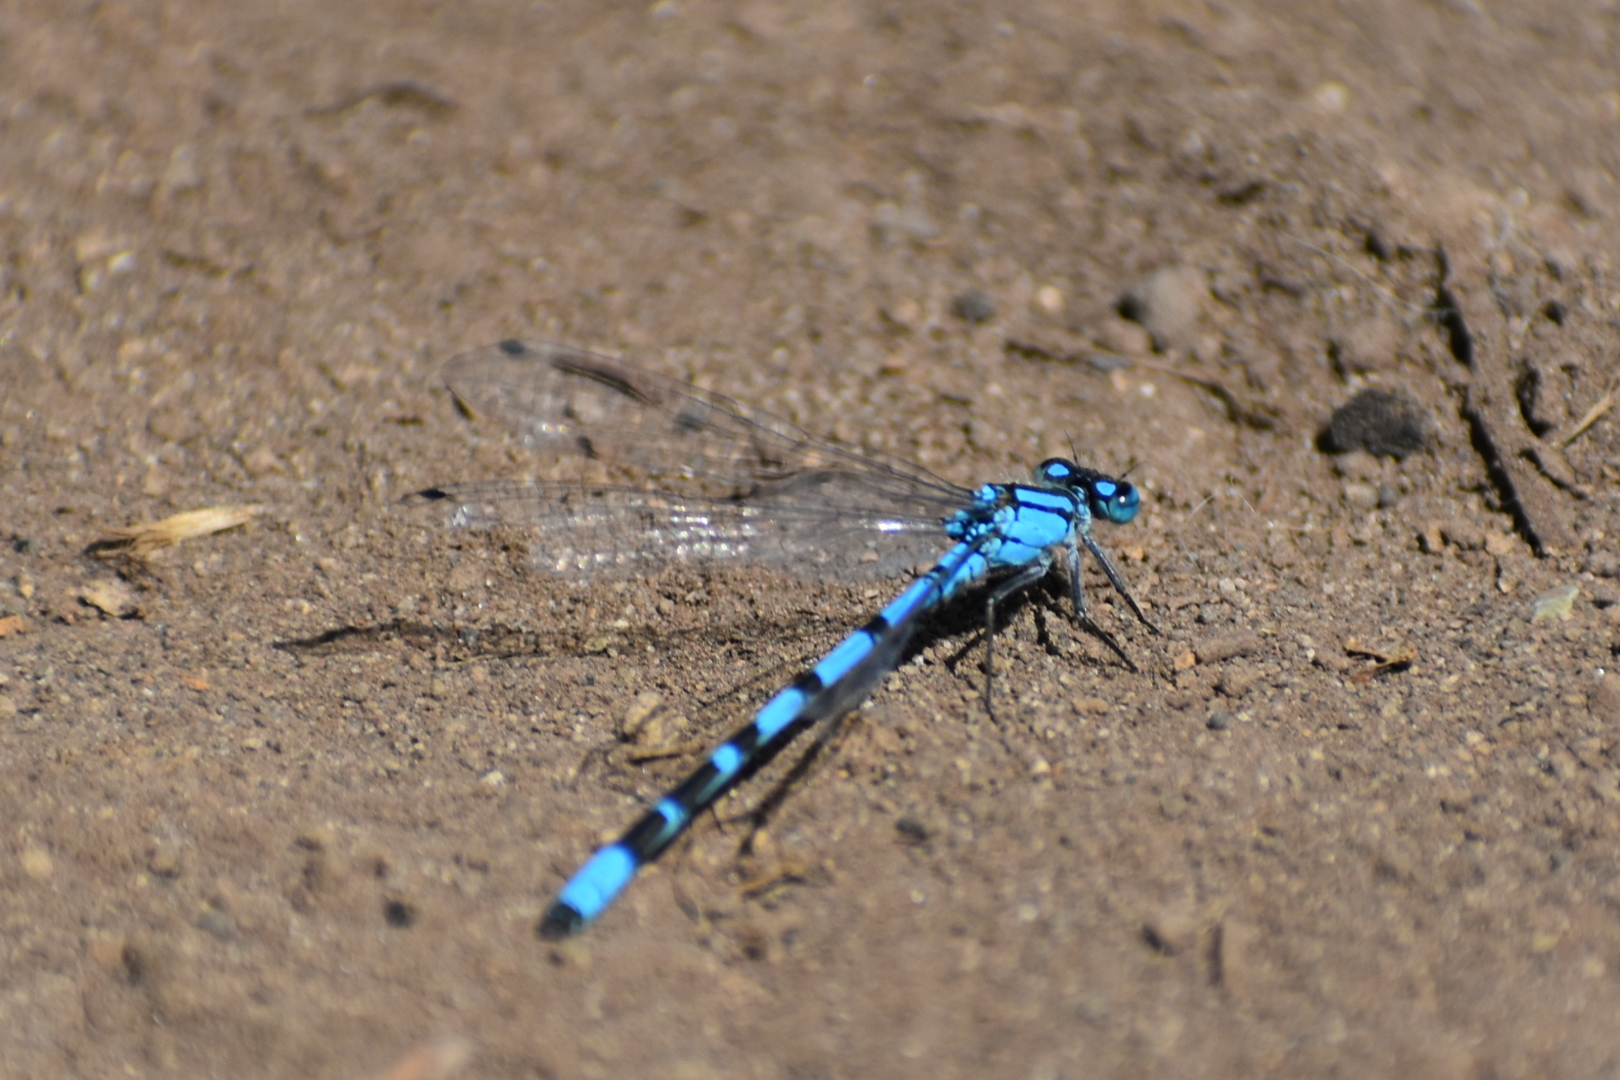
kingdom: Animalia
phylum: Arthropoda
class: Insecta
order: Odonata
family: Coenagrionidae
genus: Enallagma
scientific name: Enallagma cyathigerum
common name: Common blue damselfly
